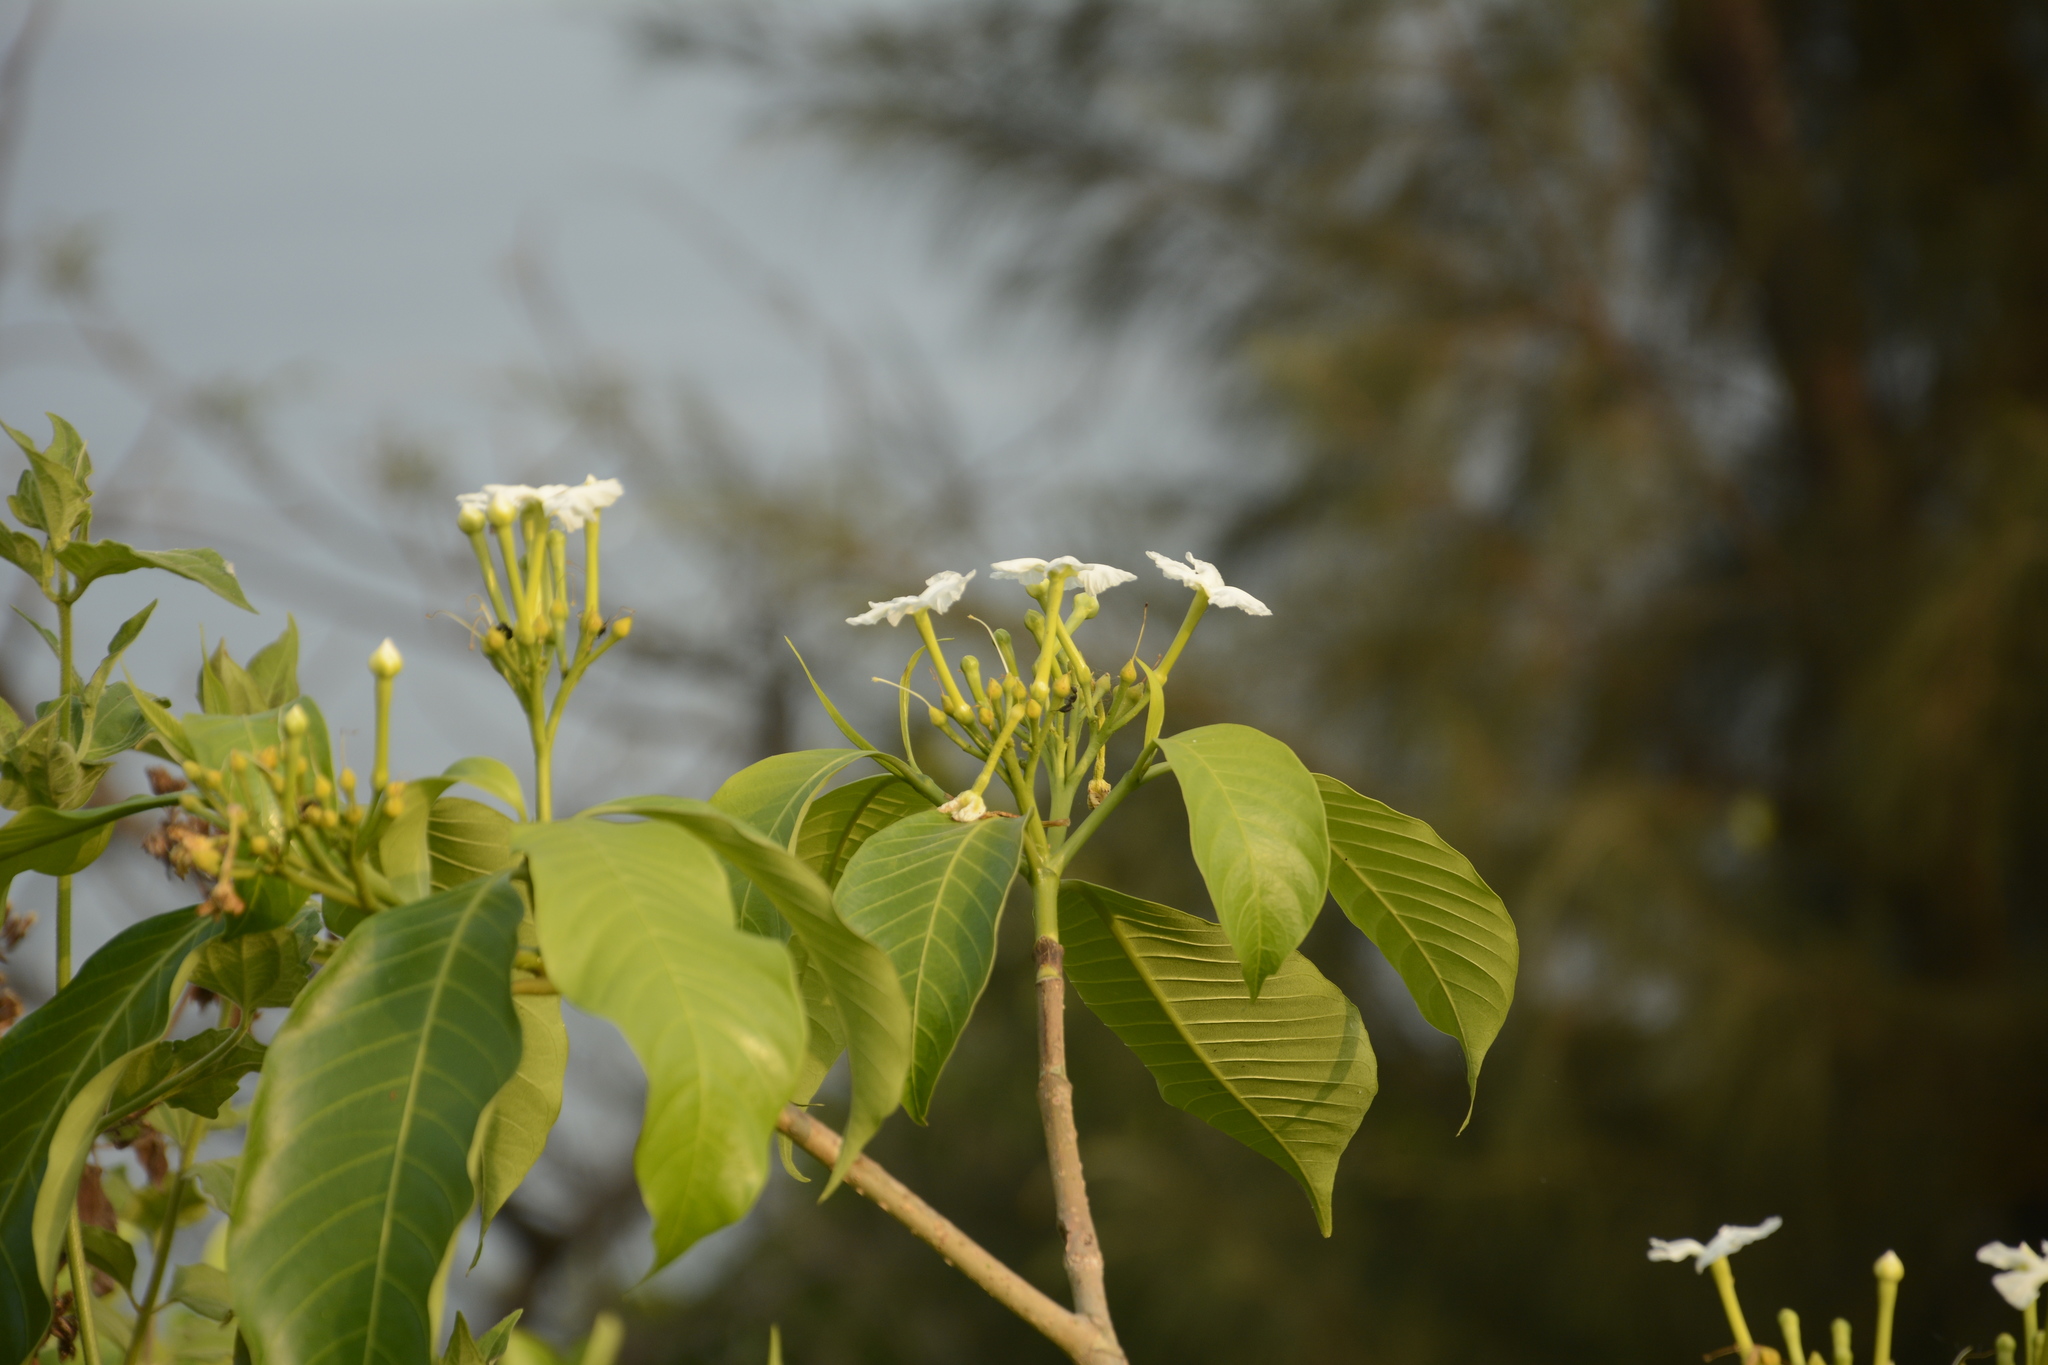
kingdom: Plantae
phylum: Tracheophyta
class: Magnoliopsida
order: Gentianales
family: Apocynaceae
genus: Tabernaemontana
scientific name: Tabernaemontana alternifolia
